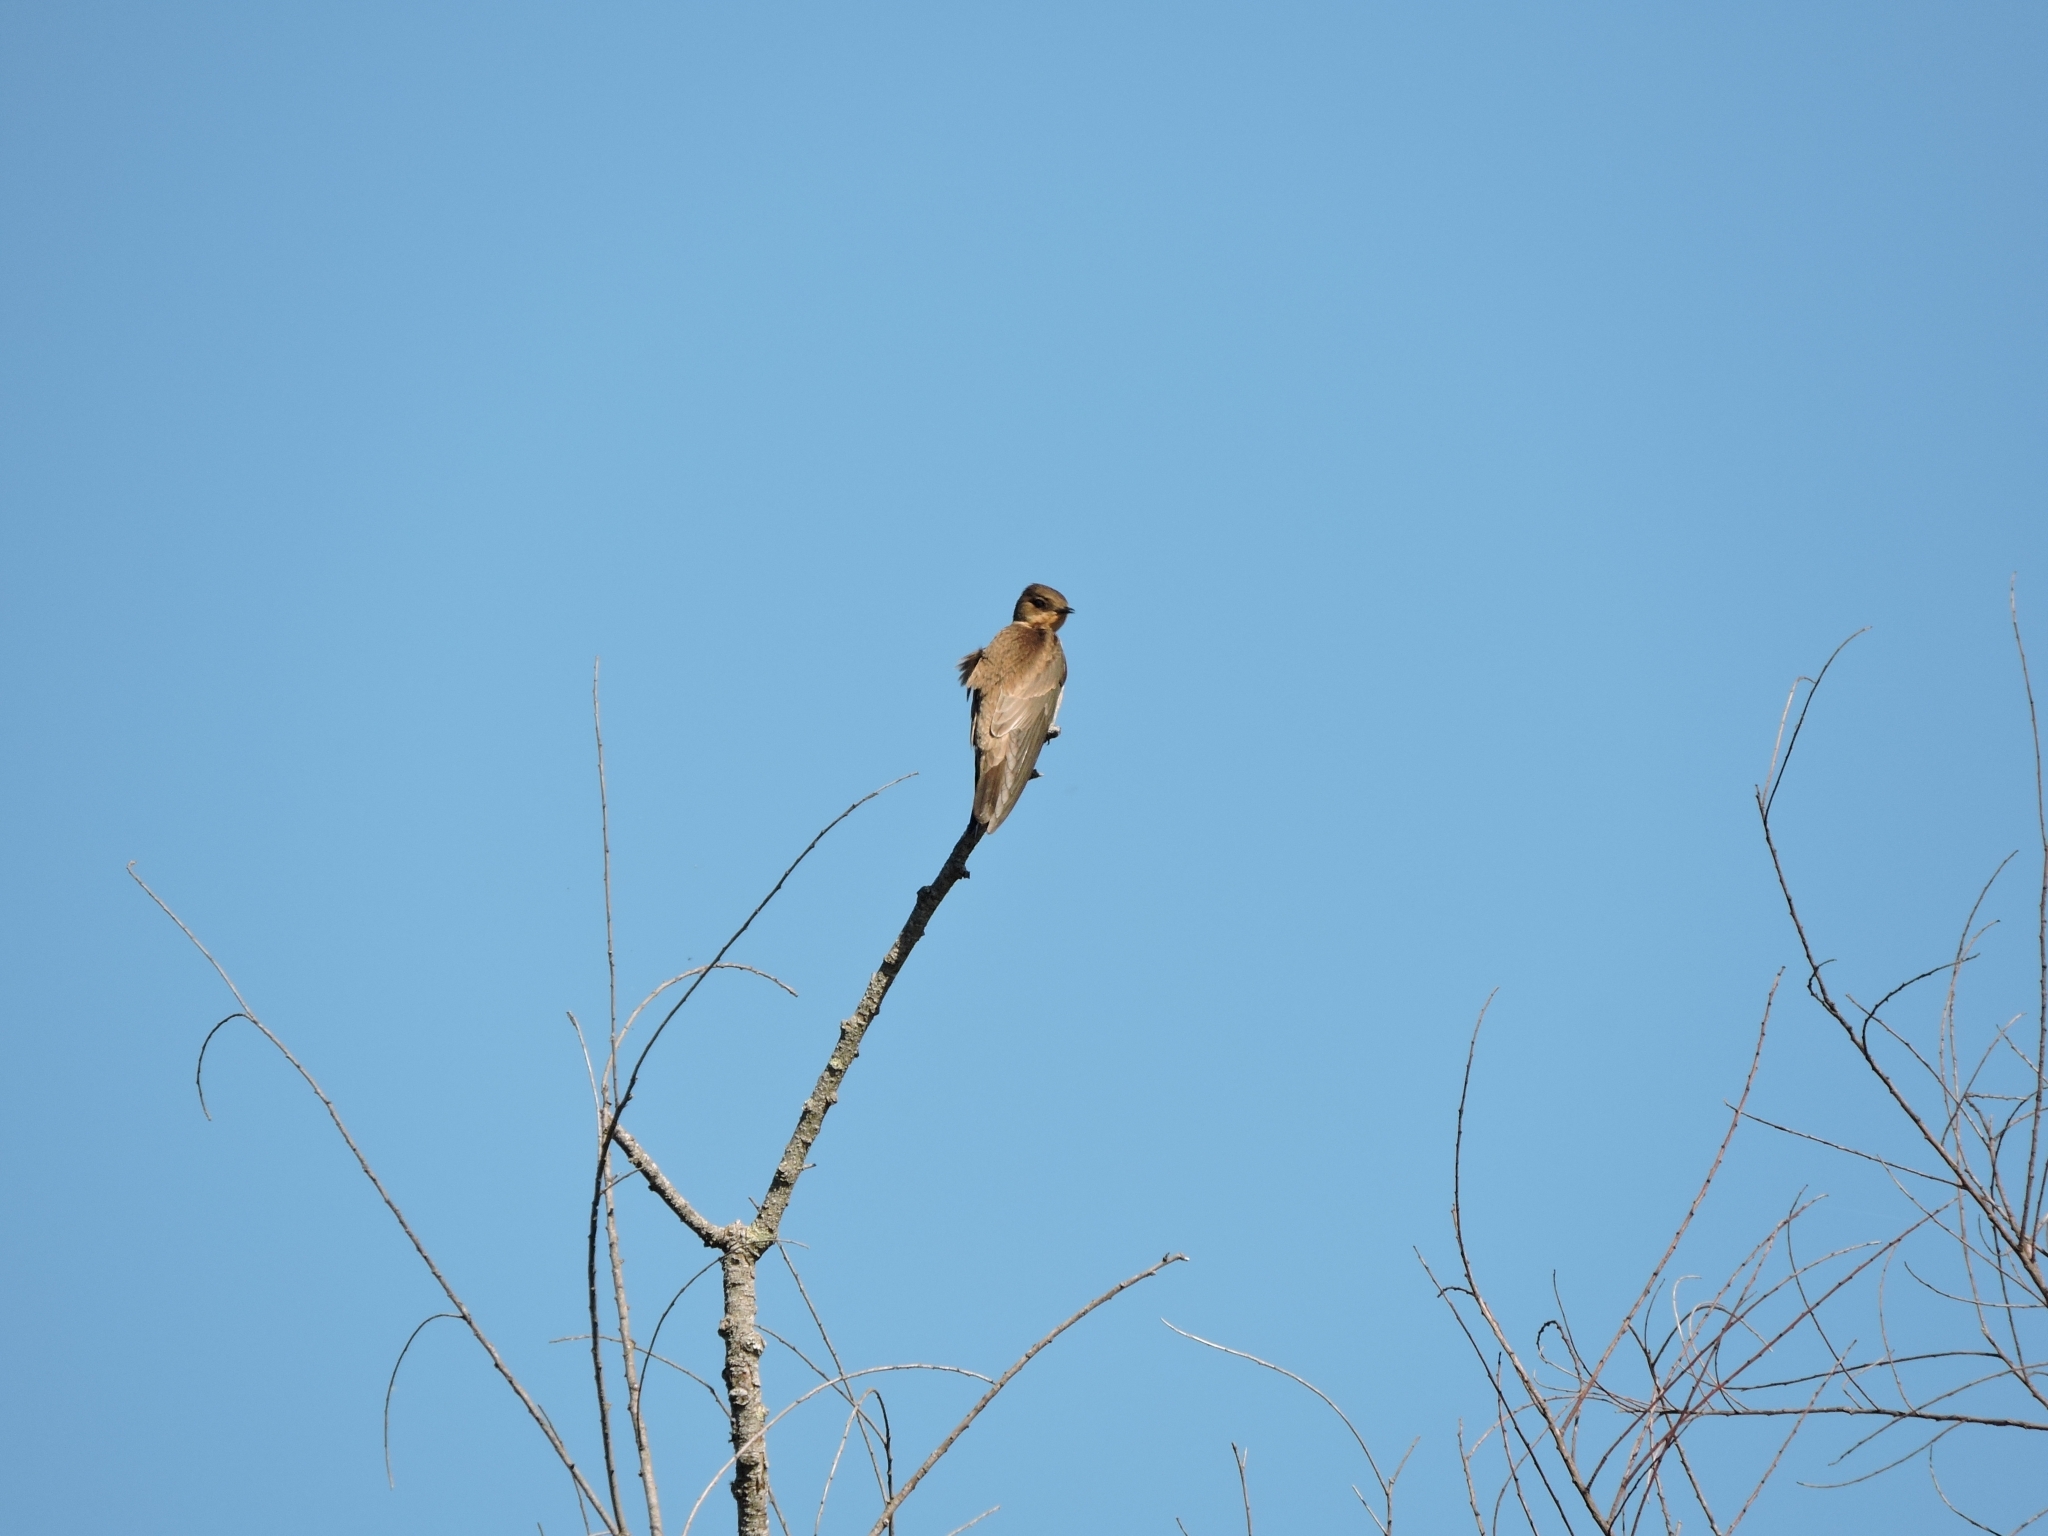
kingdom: Animalia
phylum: Chordata
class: Aves
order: Passeriformes
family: Hirundinidae
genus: Stelgidopteryx
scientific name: Stelgidopteryx ruficollis
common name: Southern rough-winged swallow
